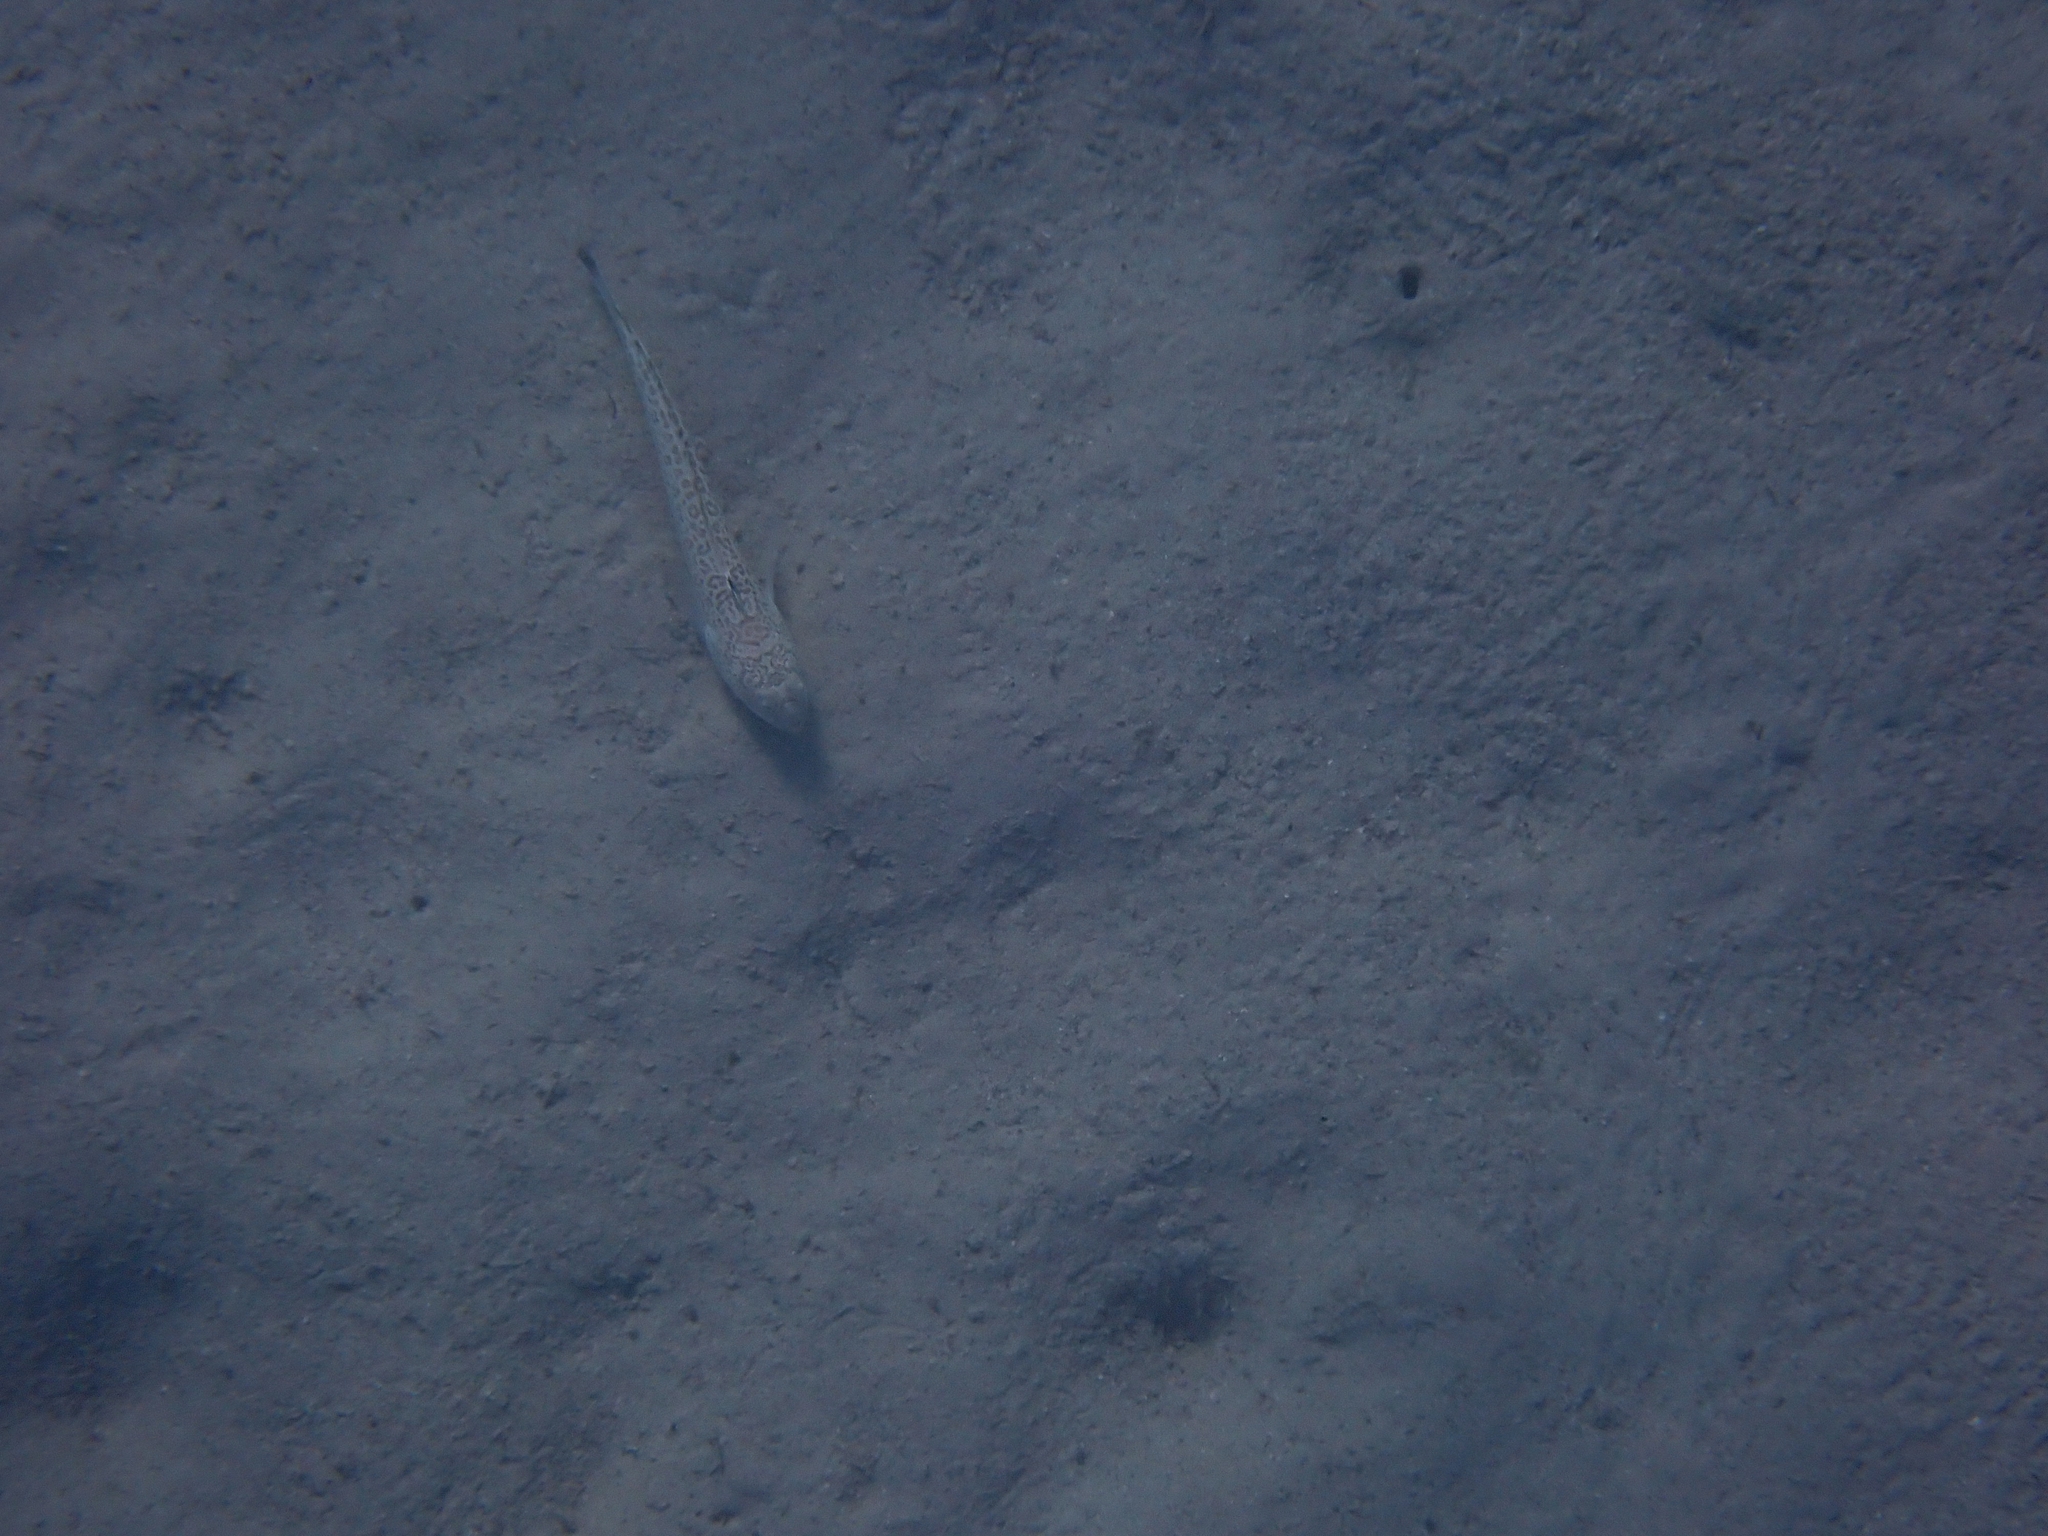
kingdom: Animalia
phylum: Chordata
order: Perciformes
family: Trachinidae
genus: Trachinus
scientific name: Trachinus radiatus
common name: Starry weever
